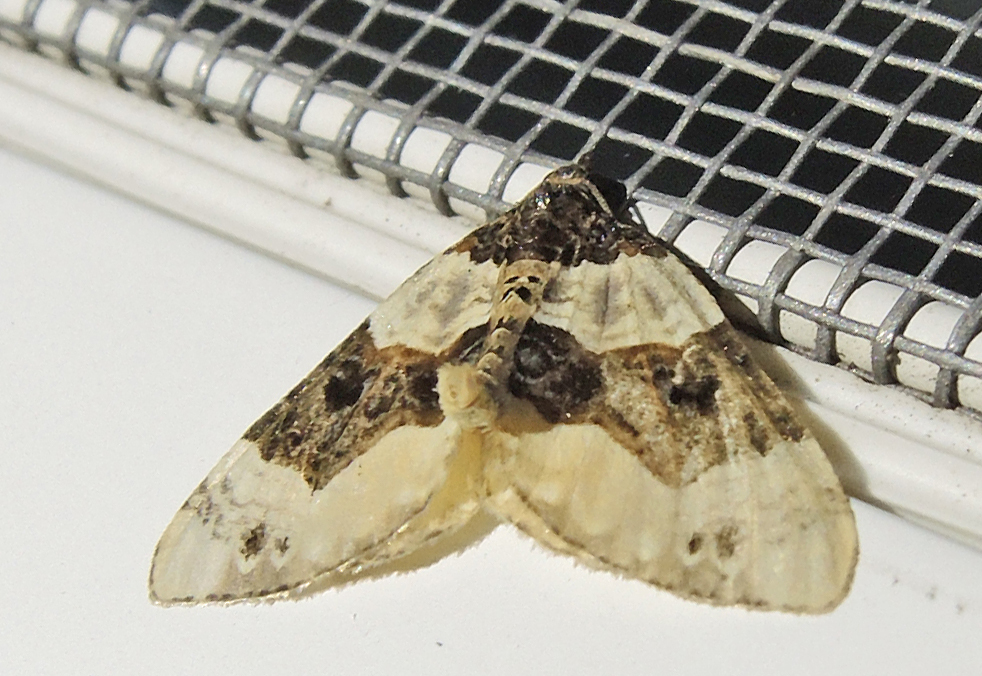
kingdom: Animalia
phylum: Arthropoda
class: Insecta
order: Lepidoptera
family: Geometridae
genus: Cosmorhoe
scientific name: Cosmorhoe ocellata
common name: Purple bar
